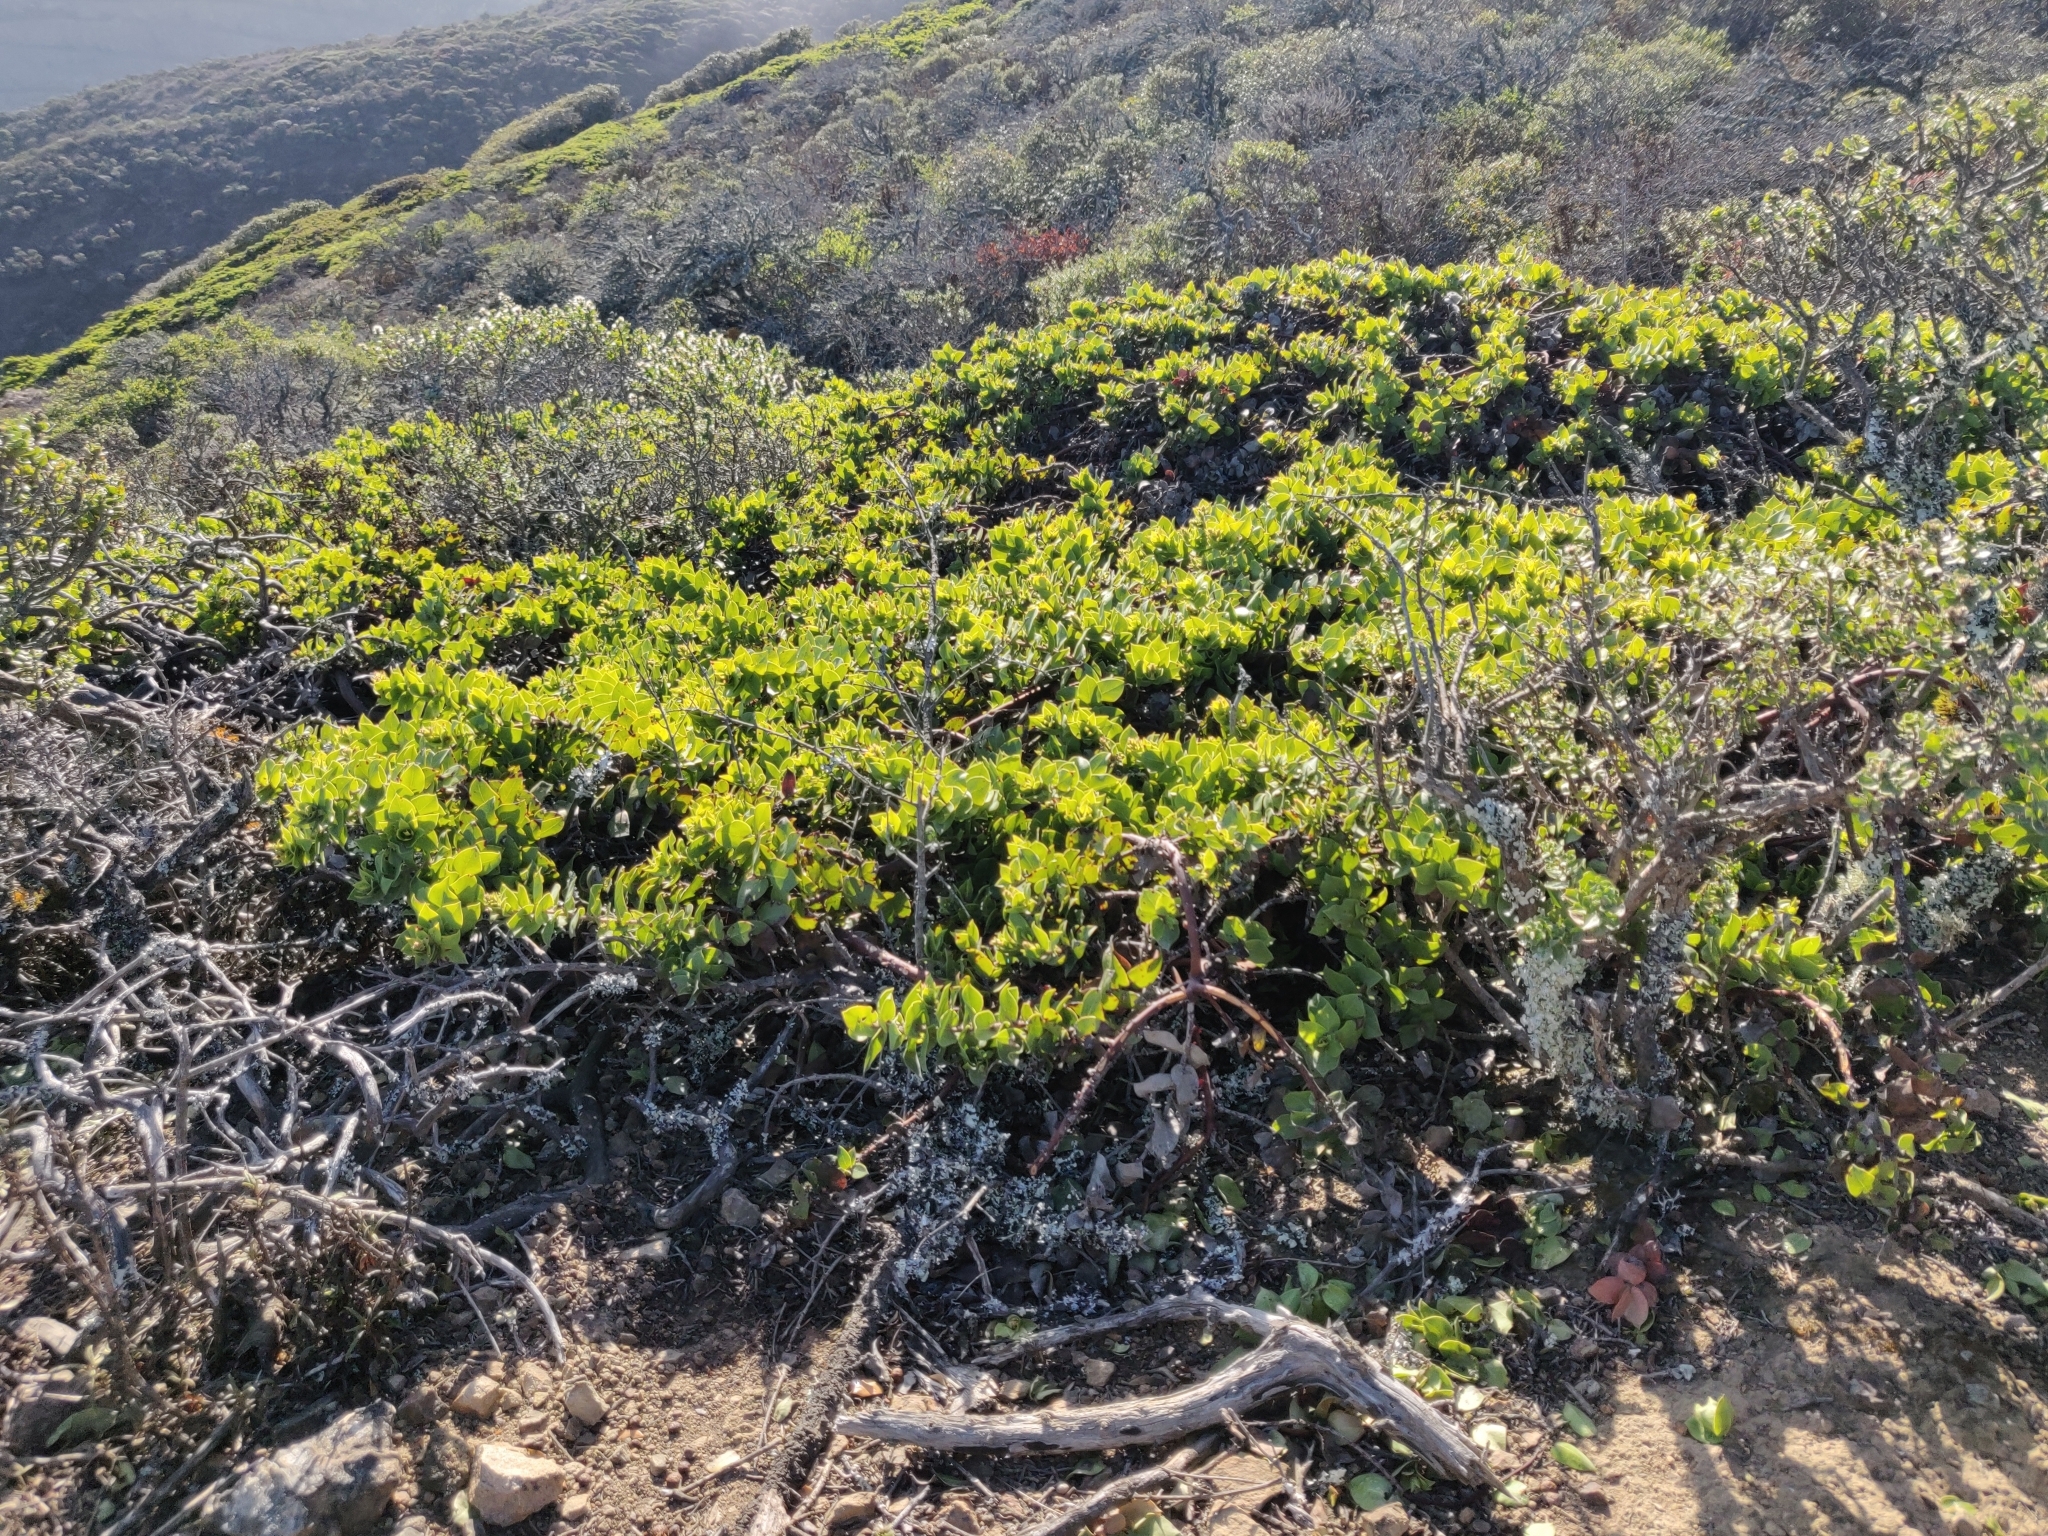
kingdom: Plantae
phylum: Tracheophyta
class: Magnoliopsida
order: Ericales
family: Ericaceae
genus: Arctostaphylos
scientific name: Arctostaphylos imbricata
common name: San bruno mountain manzanita
